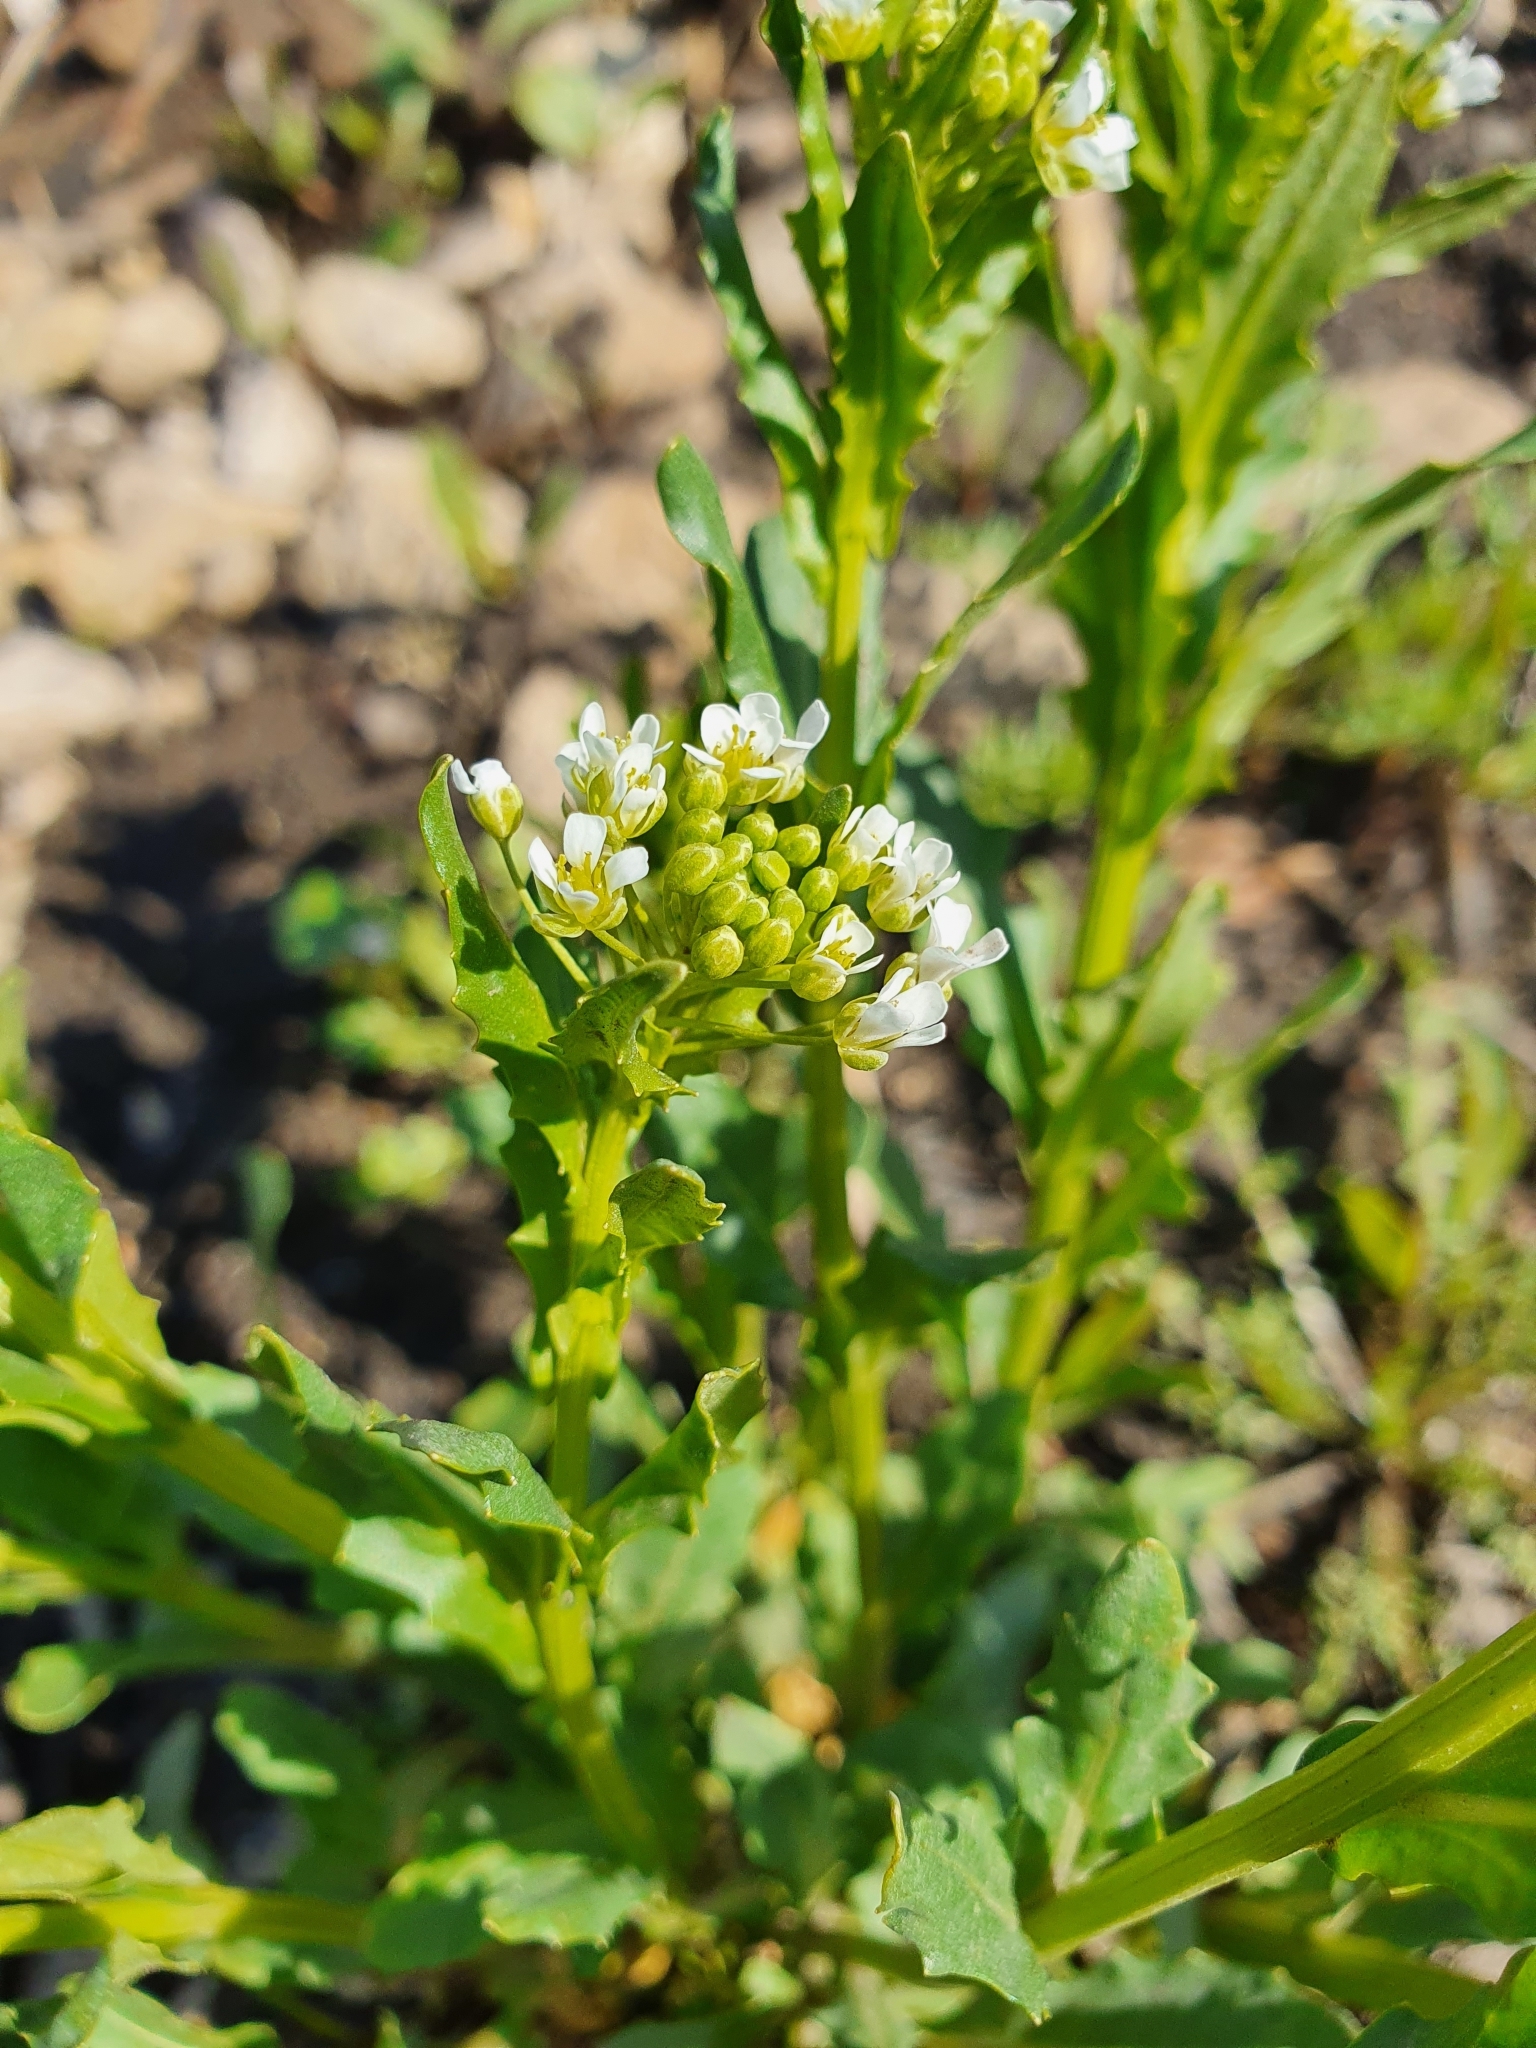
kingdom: Plantae
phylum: Tracheophyta
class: Magnoliopsida
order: Brassicales
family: Brassicaceae
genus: Thlaspi
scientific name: Thlaspi arvense
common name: Field pennycress
